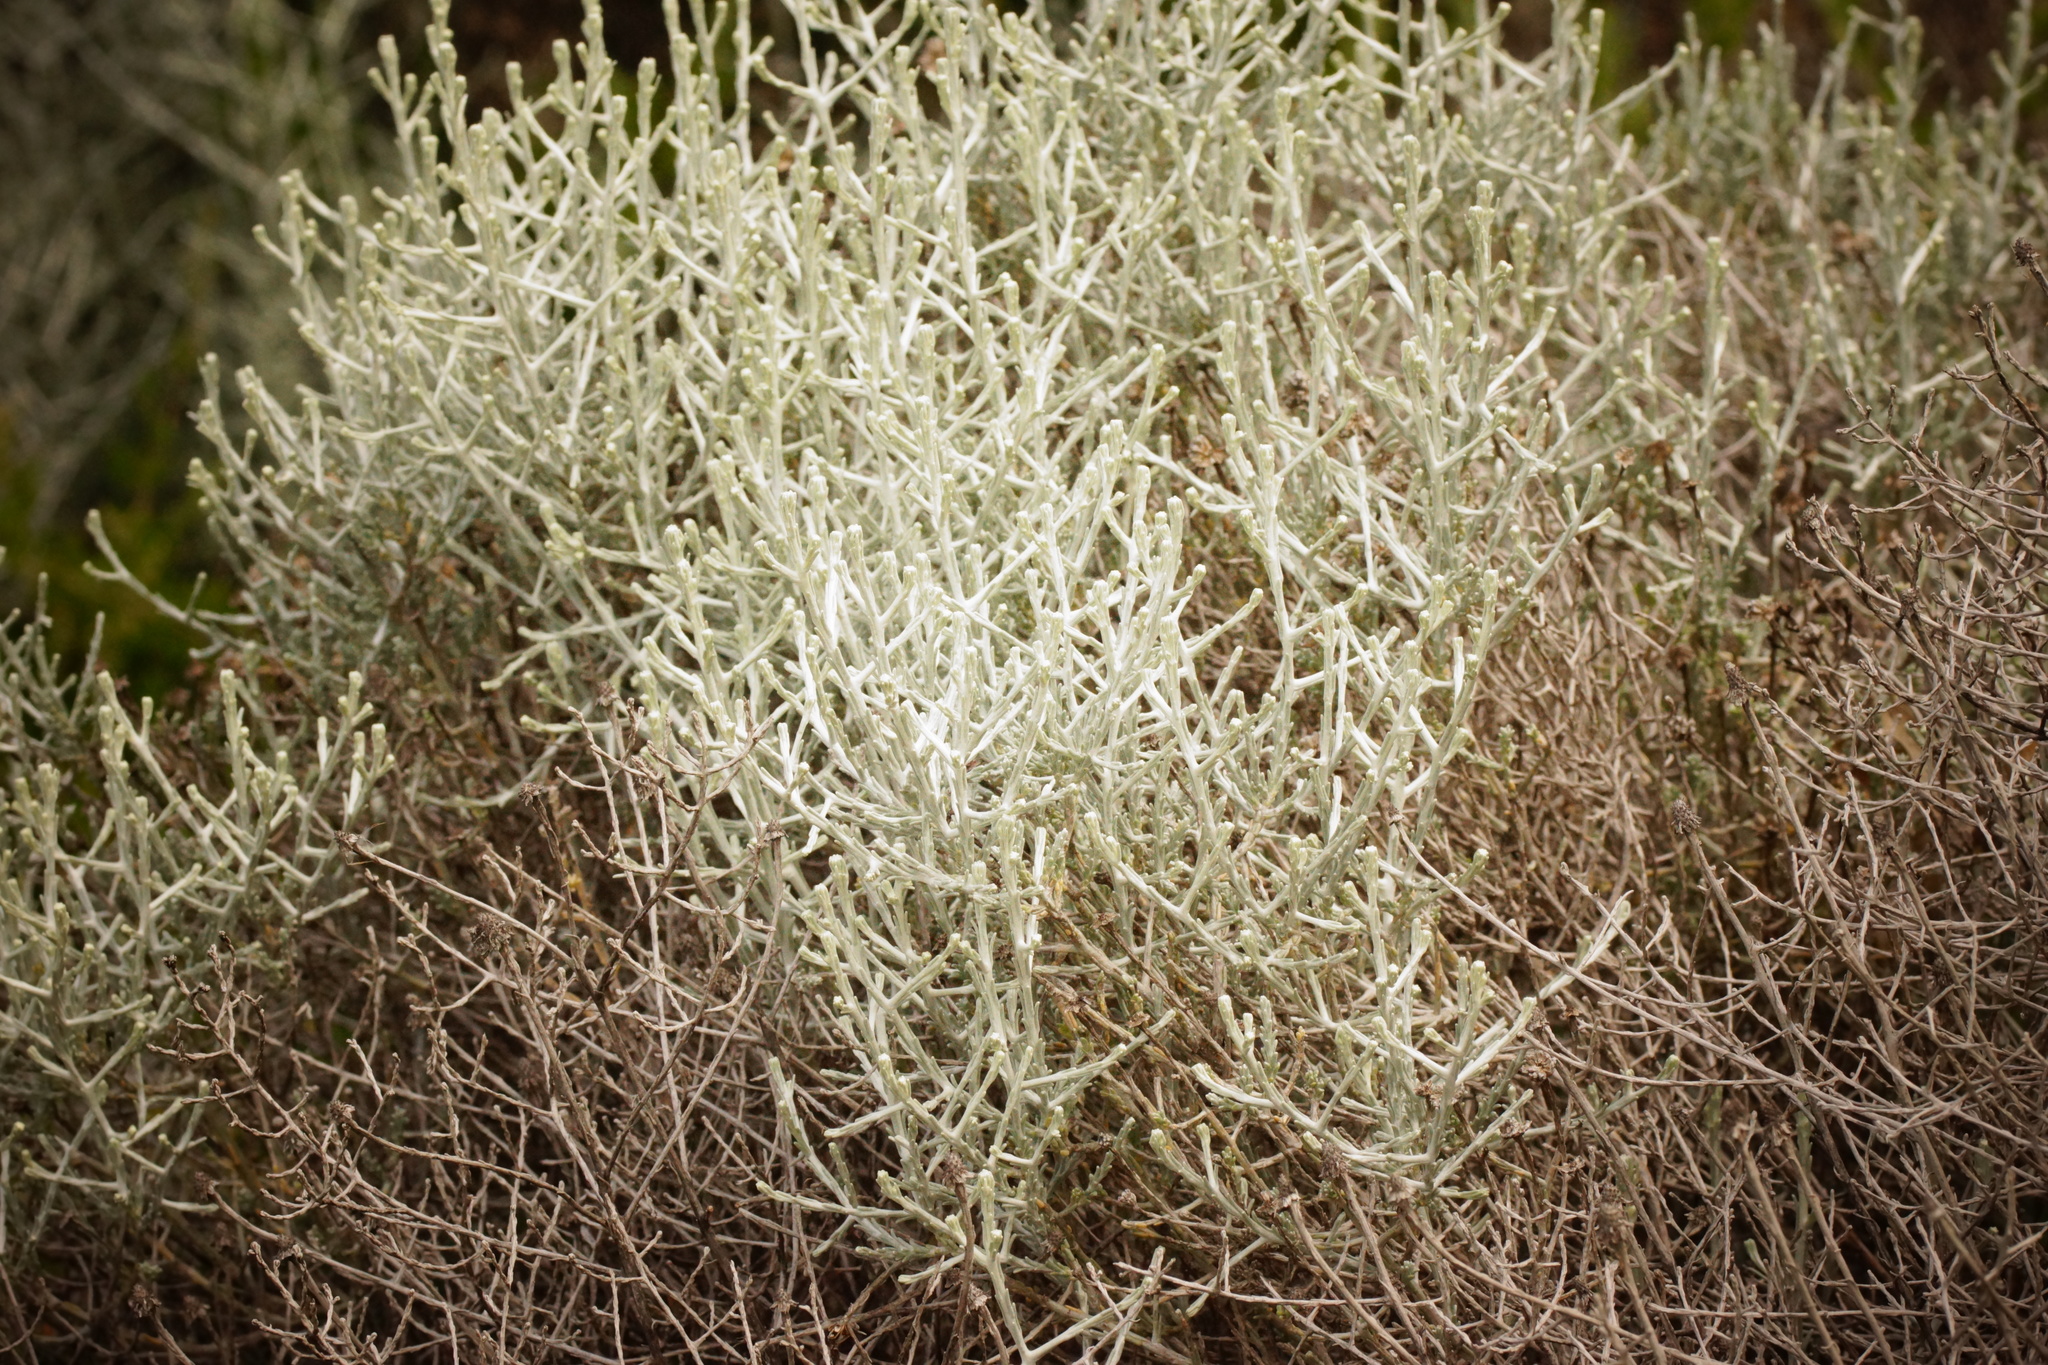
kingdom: Plantae
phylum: Tracheophyta
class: Magnoliopsida
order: Asterales
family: Asteraceae
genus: Calocephalus
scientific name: Calocephalus brownii
